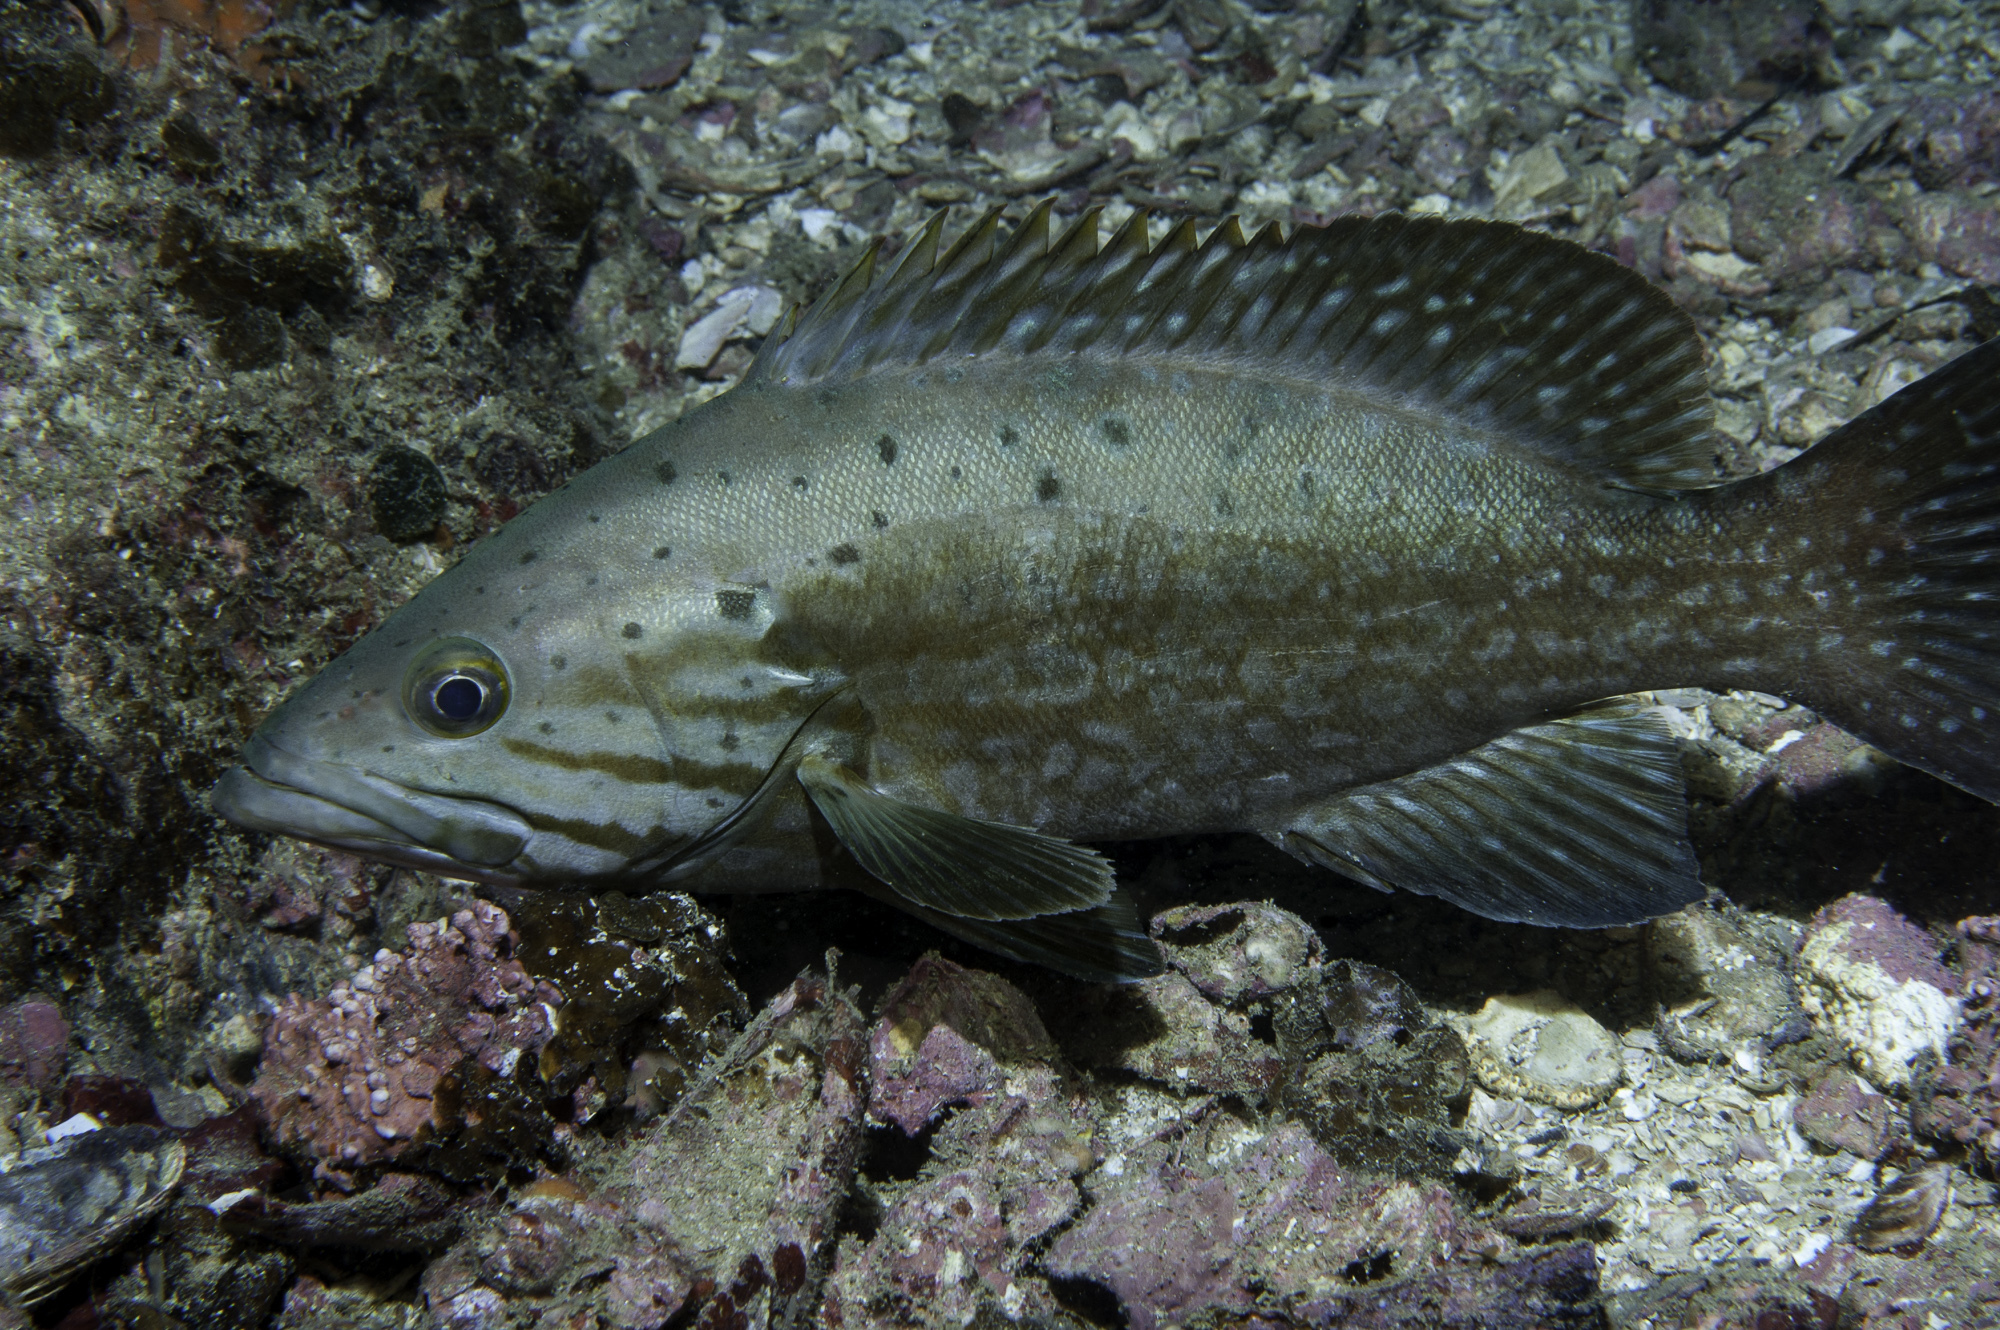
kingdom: Animalia
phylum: Chordata
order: Perciformes
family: Serranidae
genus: Mycteroperca
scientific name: Mycteroperca acutirostris
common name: Comb grouper
